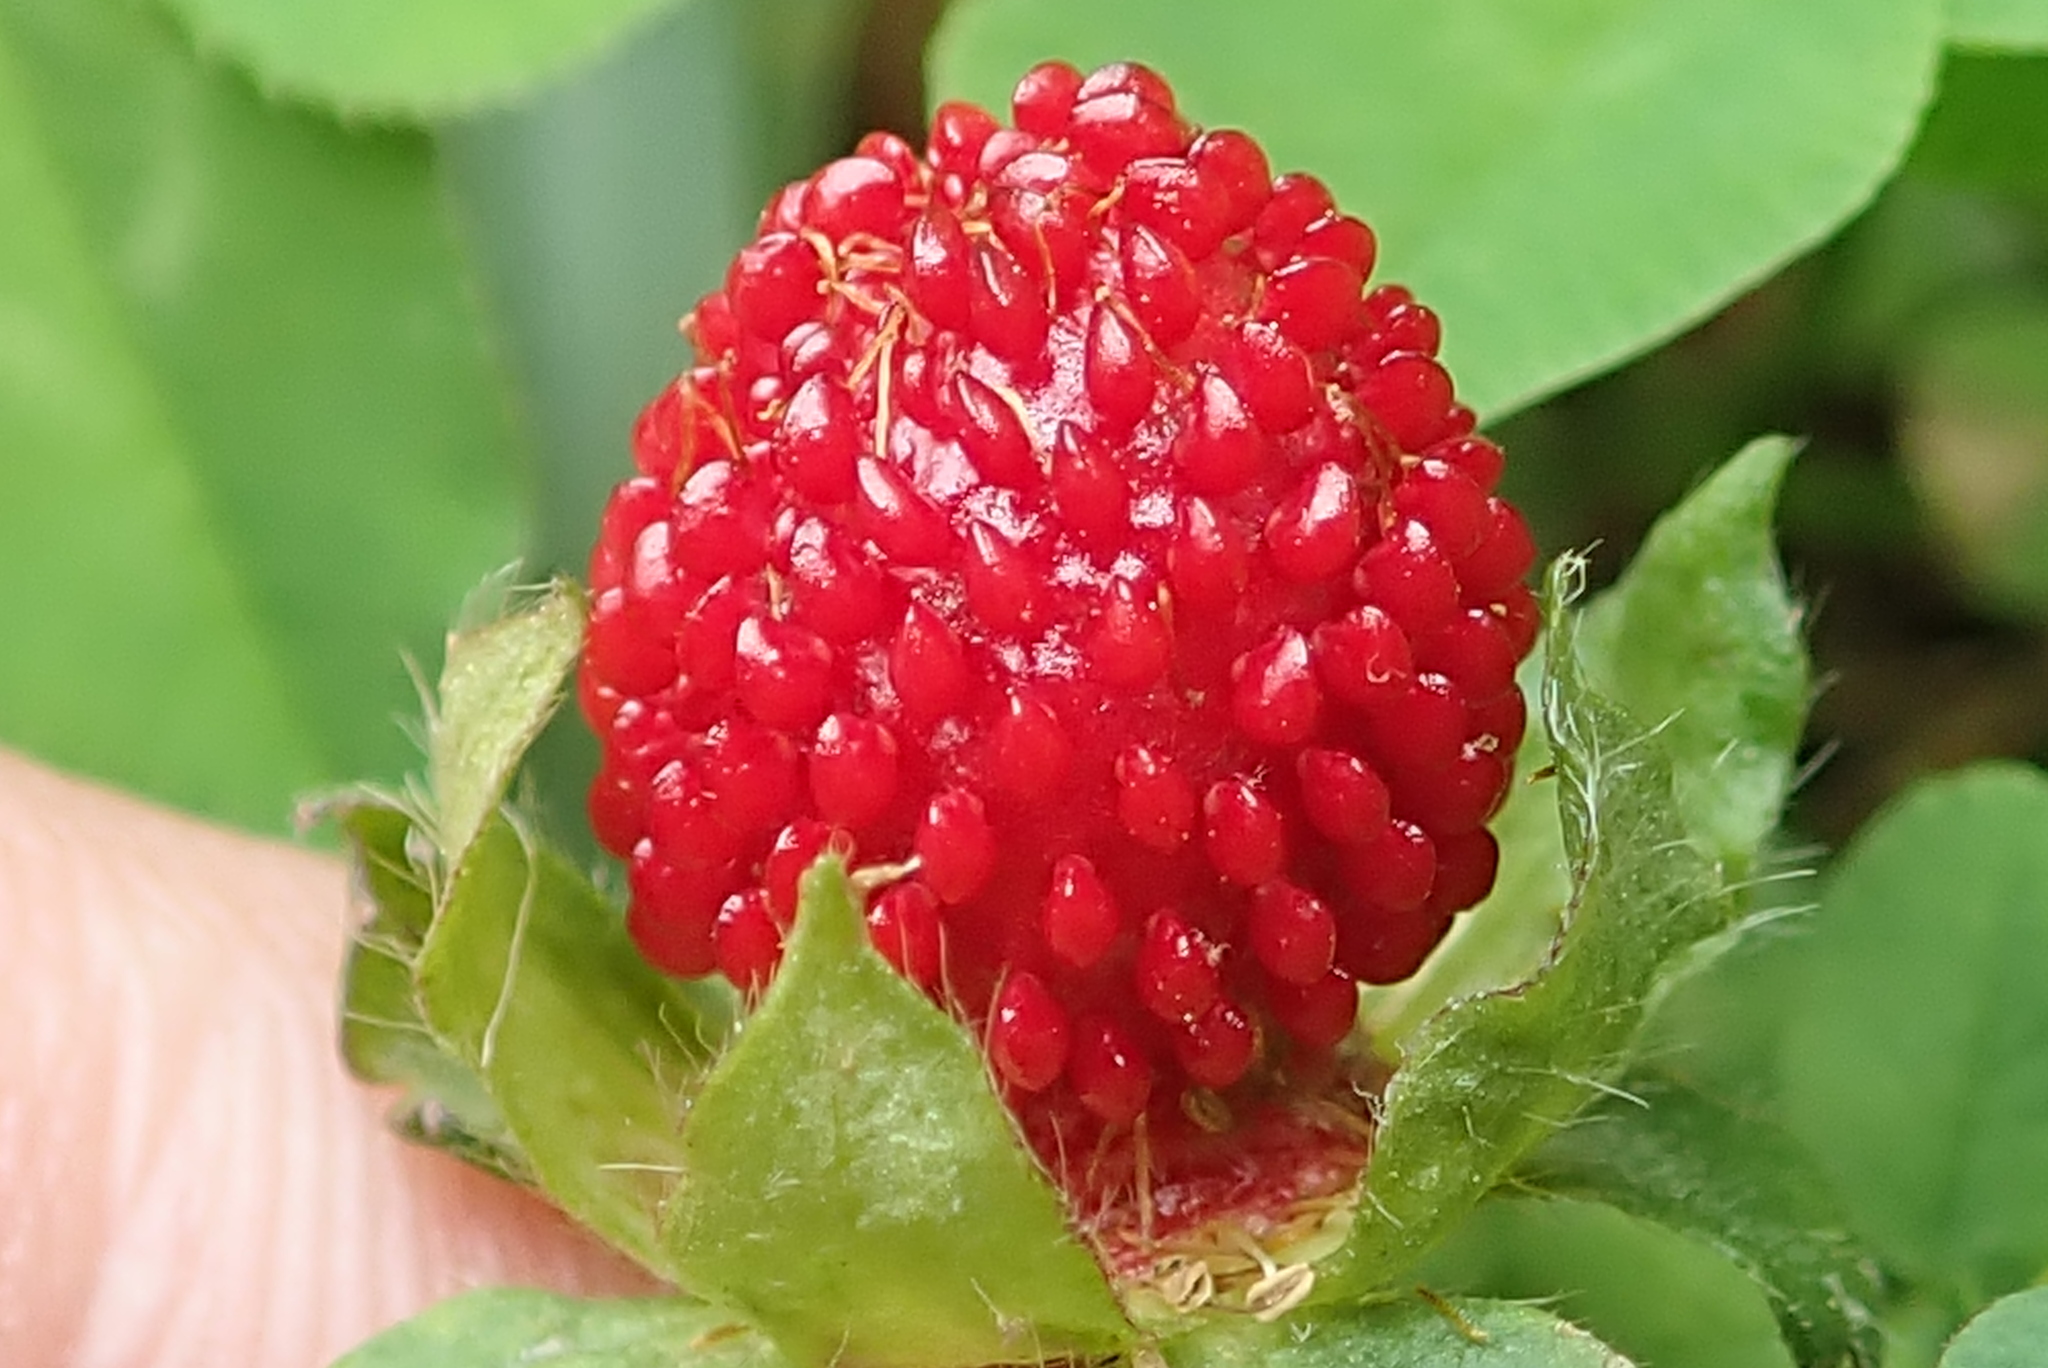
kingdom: Plantae
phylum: Tracheophyta
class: Magnoliopsida
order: Rosales
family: Rosaceae
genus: Potentilla
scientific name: Potentilla indica
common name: Yellow-flowered strawberry
